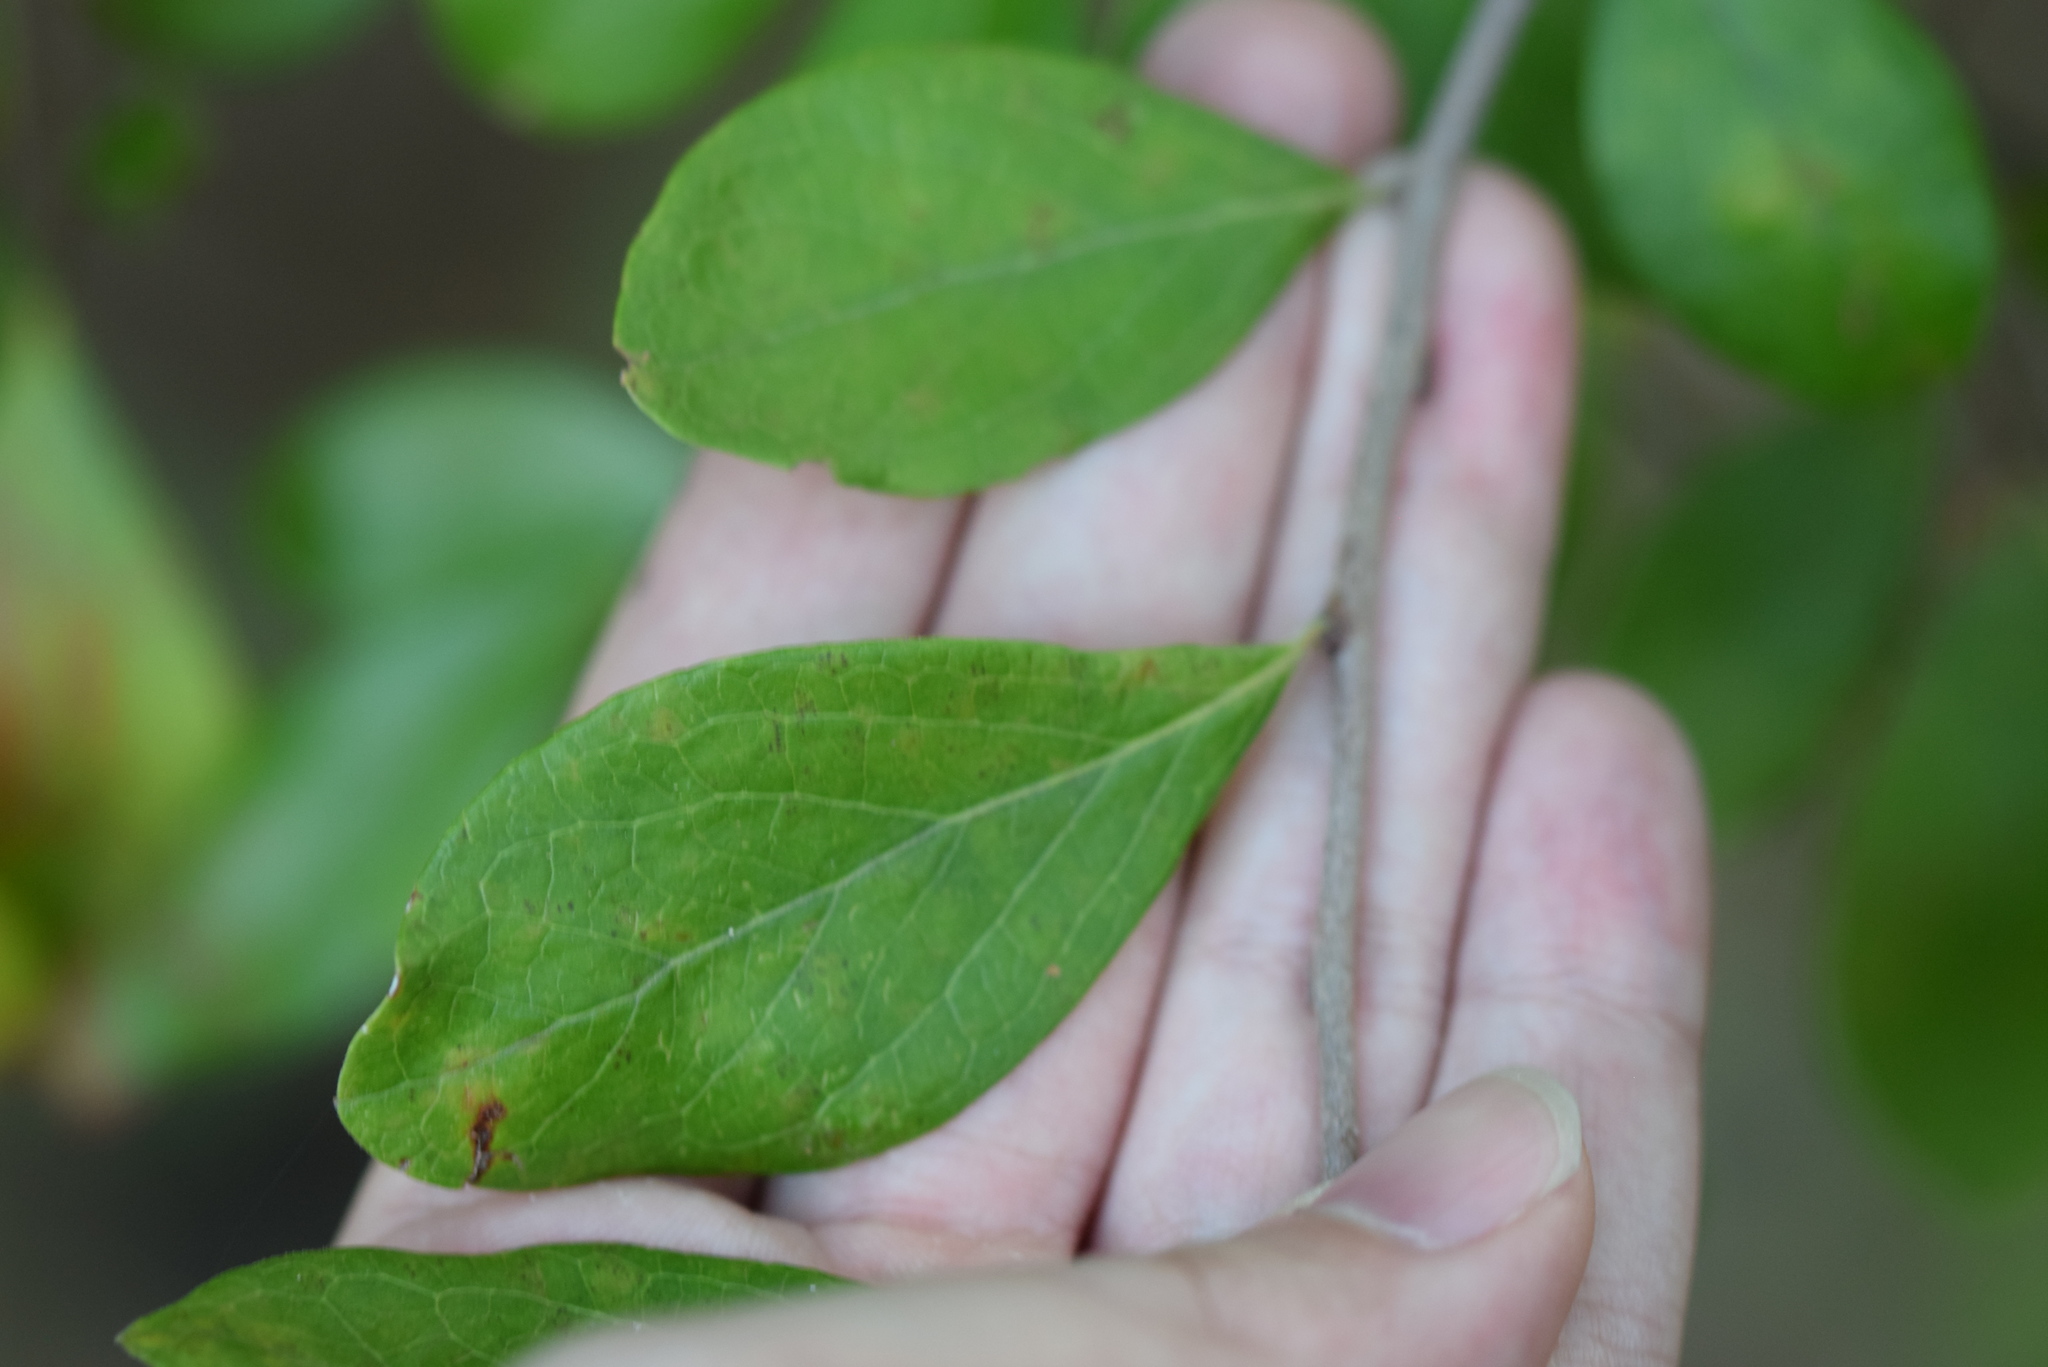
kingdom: Plantae
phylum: Tracheophyta
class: Magnoliopsida
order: Ericales
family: Ericaceae
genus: Vaccinium
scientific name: Vaccinium arboreum
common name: Farkleberry
